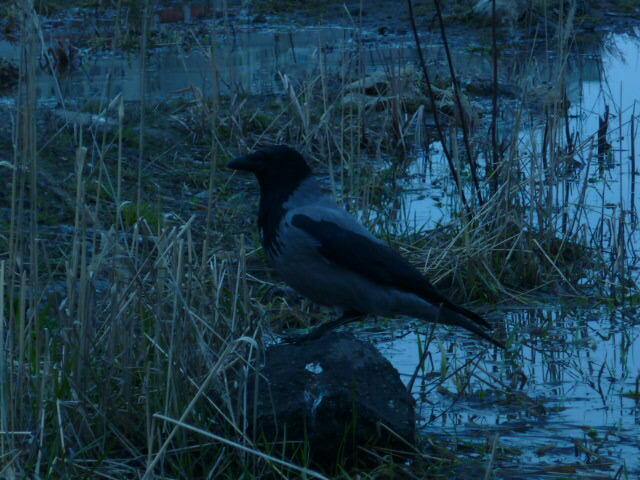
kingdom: Animalia
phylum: Chordata
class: Aves
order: Passeriformes
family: Corvidae
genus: Corvus
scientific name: Corvus cornix
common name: Hooded crow
